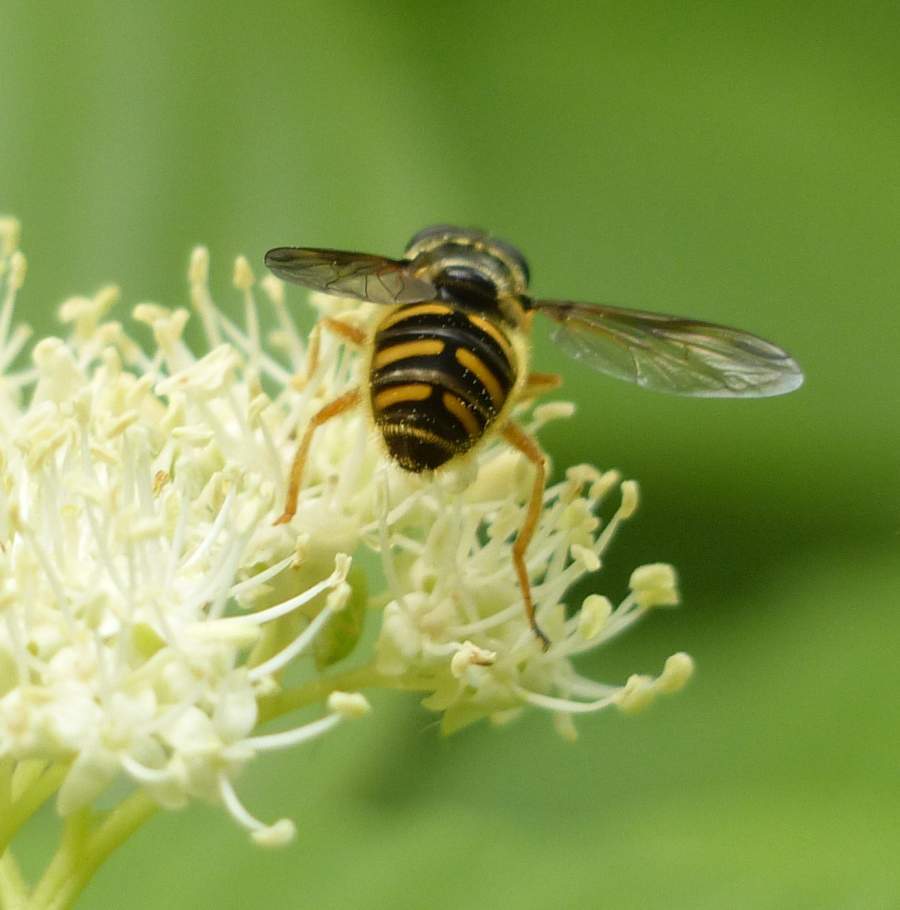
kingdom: Animalia
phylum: Arthropoda
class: Insecta
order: Diptera
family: Syrphidae
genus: Sericomyia
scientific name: Sericomyia chrysotoxoides
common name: Oblique-banded pond fly
